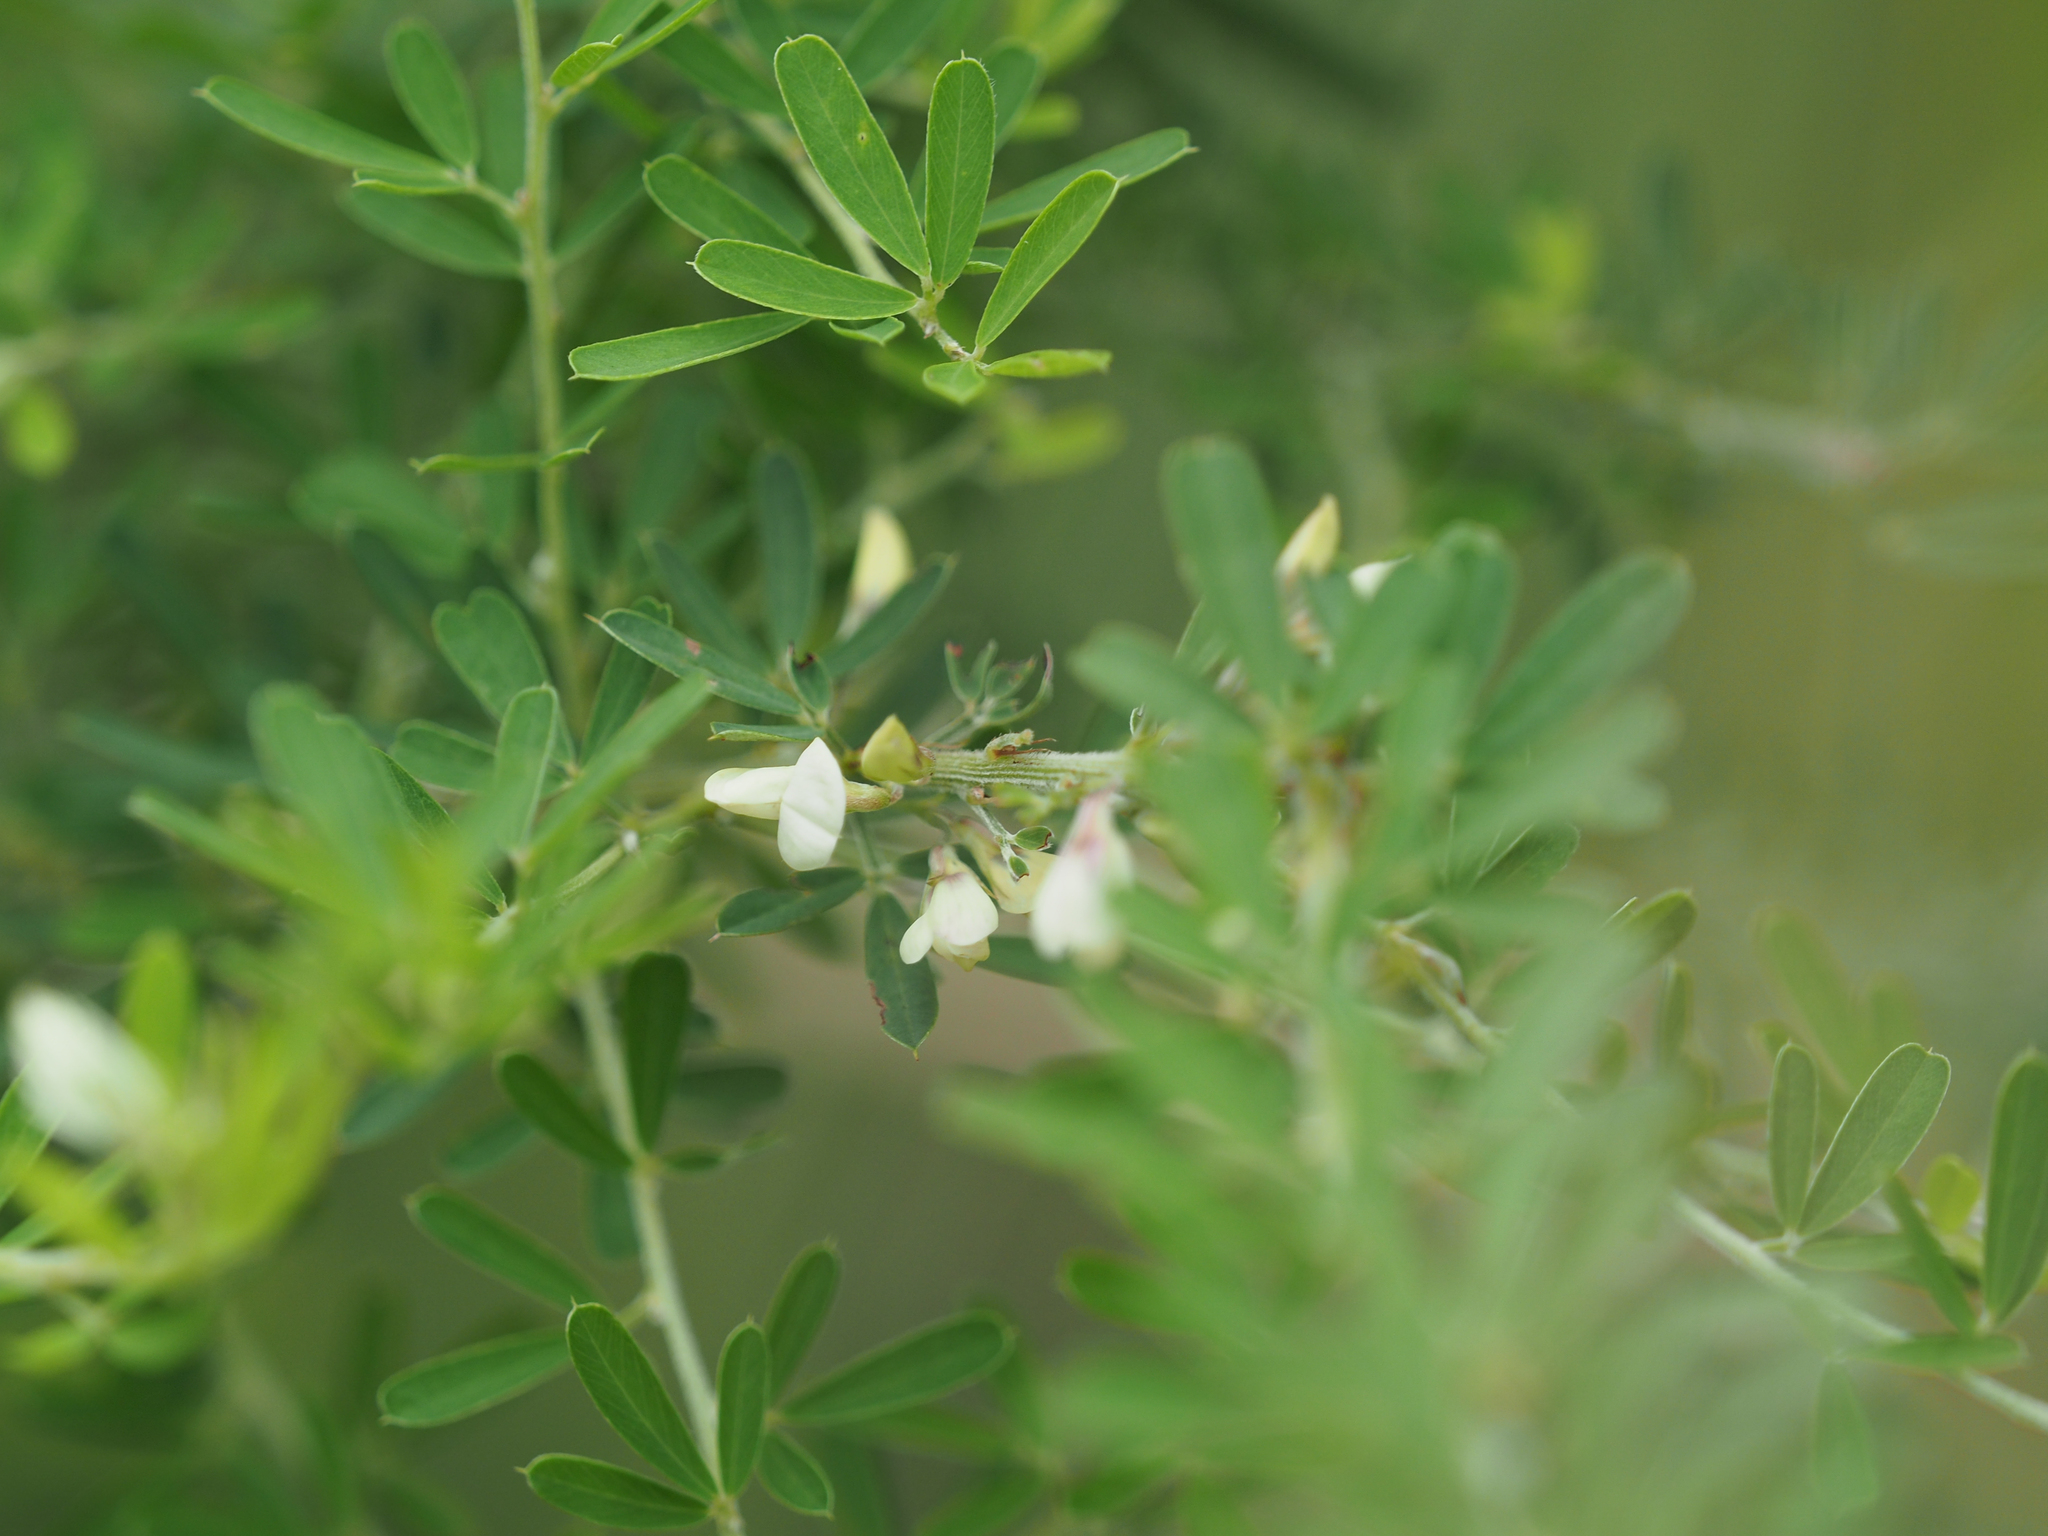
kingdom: Plantae
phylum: Tracheophyta
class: Magnoliopsida
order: Fabales
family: Fabaceae
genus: Lespedeza
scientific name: Lespedeza cuneata
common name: Chinese bush-clover
